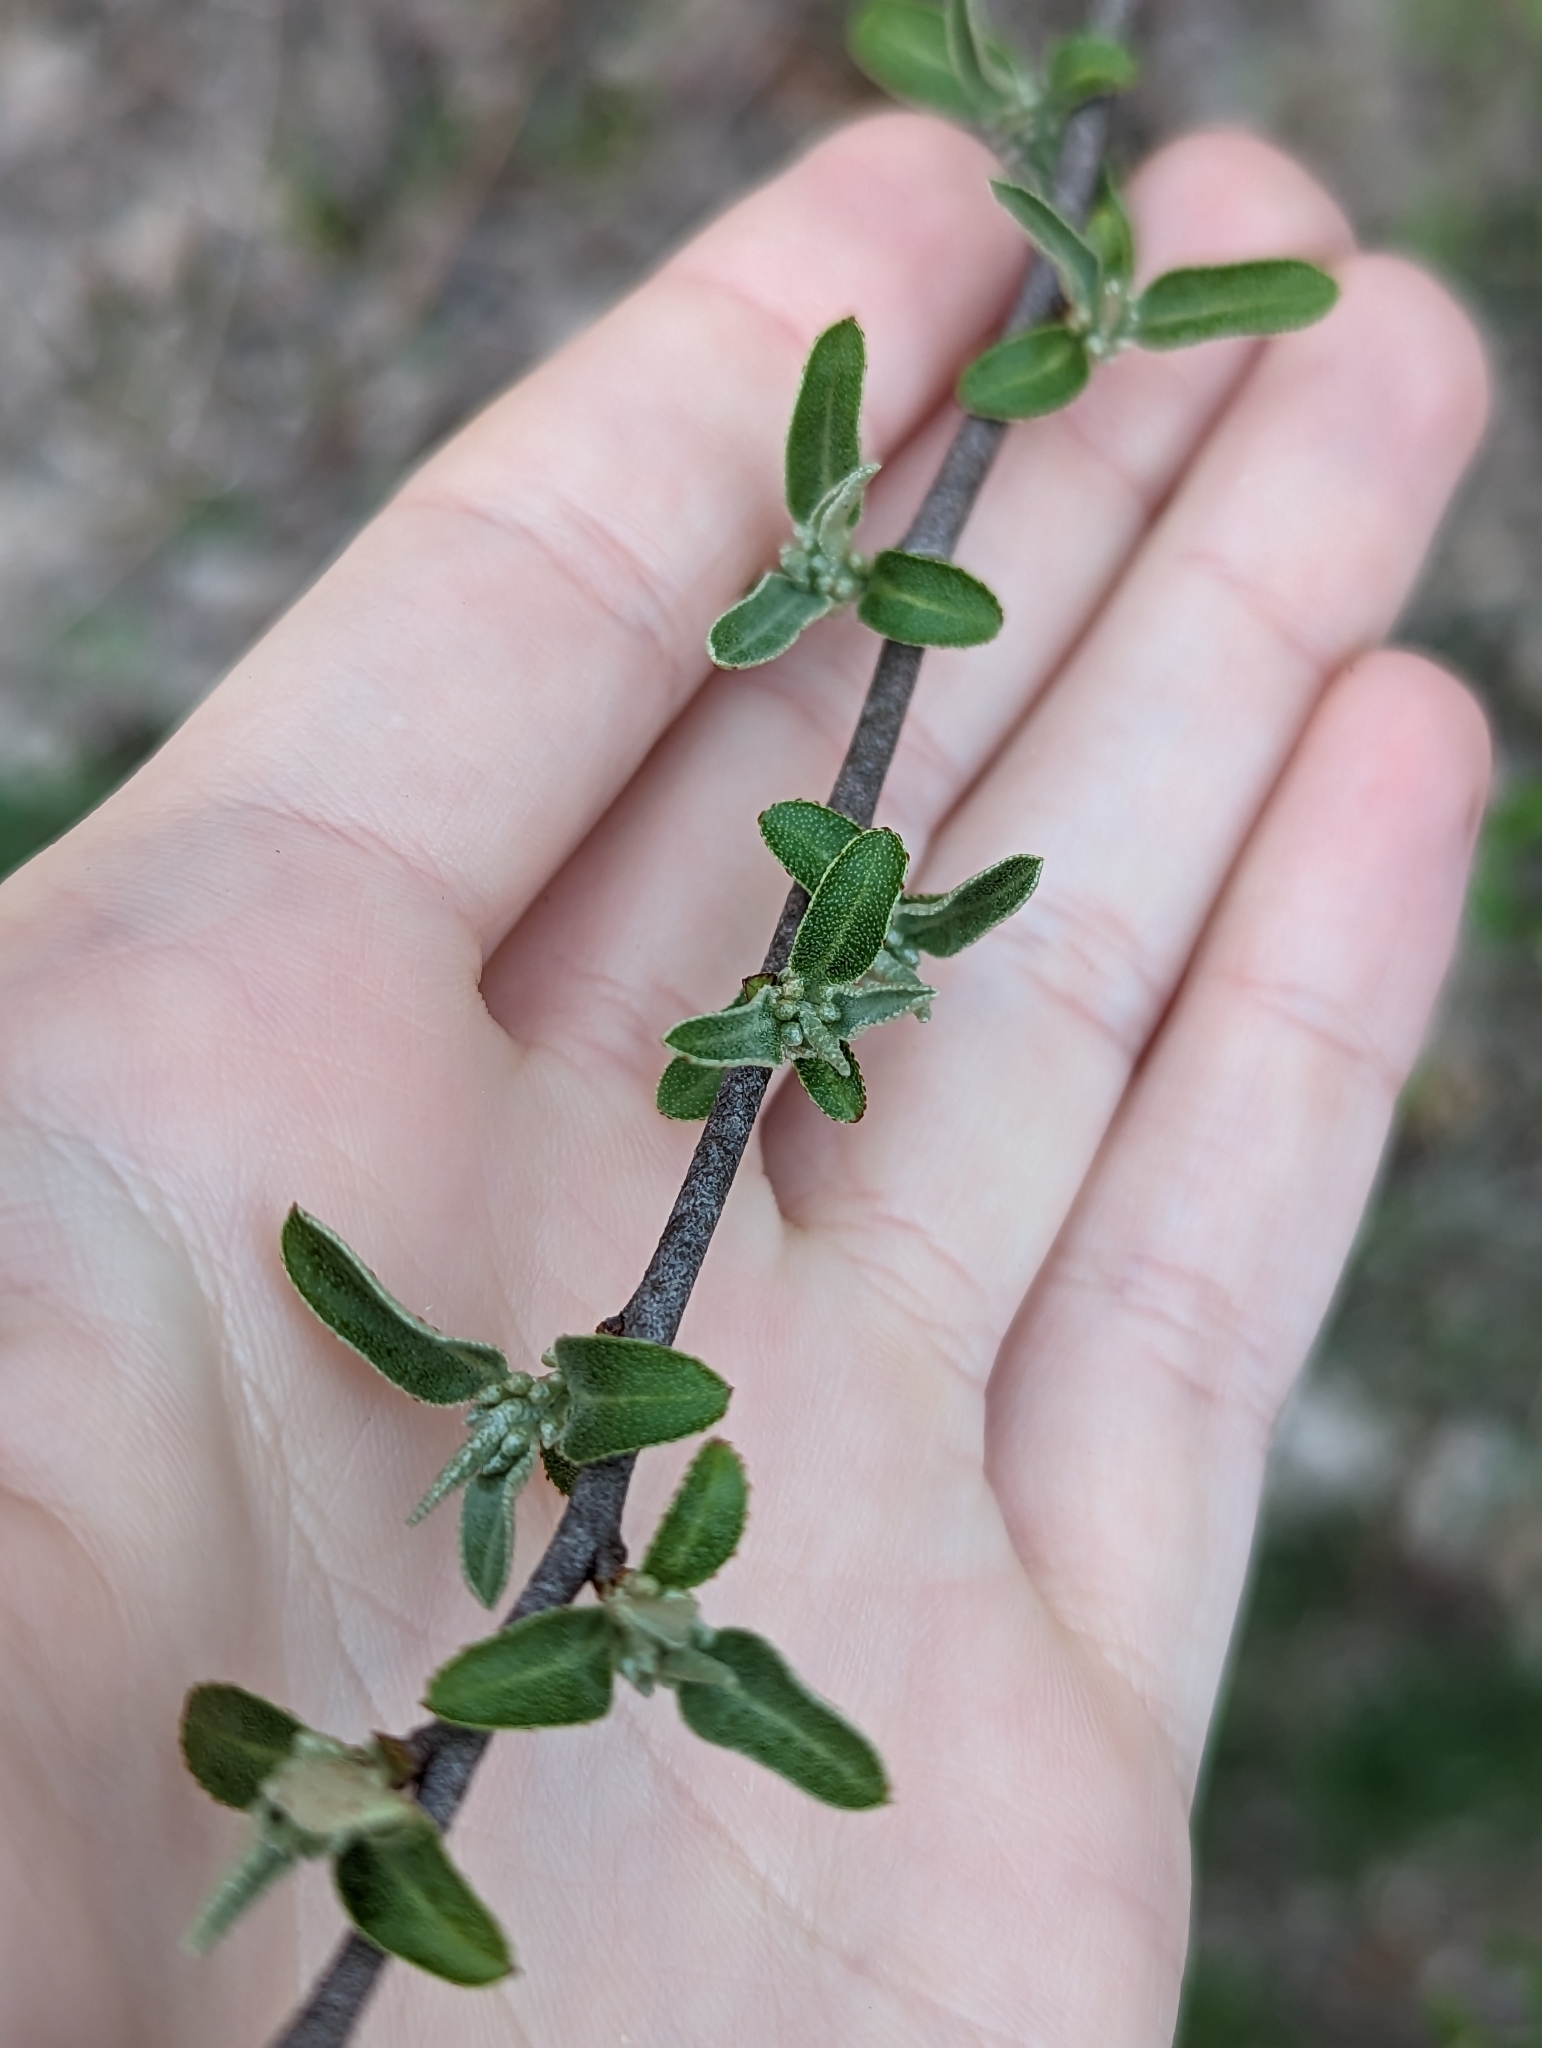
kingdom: Plantae
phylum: Tracheophyta
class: Magnoliopsida
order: Rosales
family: Elaeagnaceae
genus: Elaeagnus
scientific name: Elaeagnus umbellata
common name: Autumn olive
